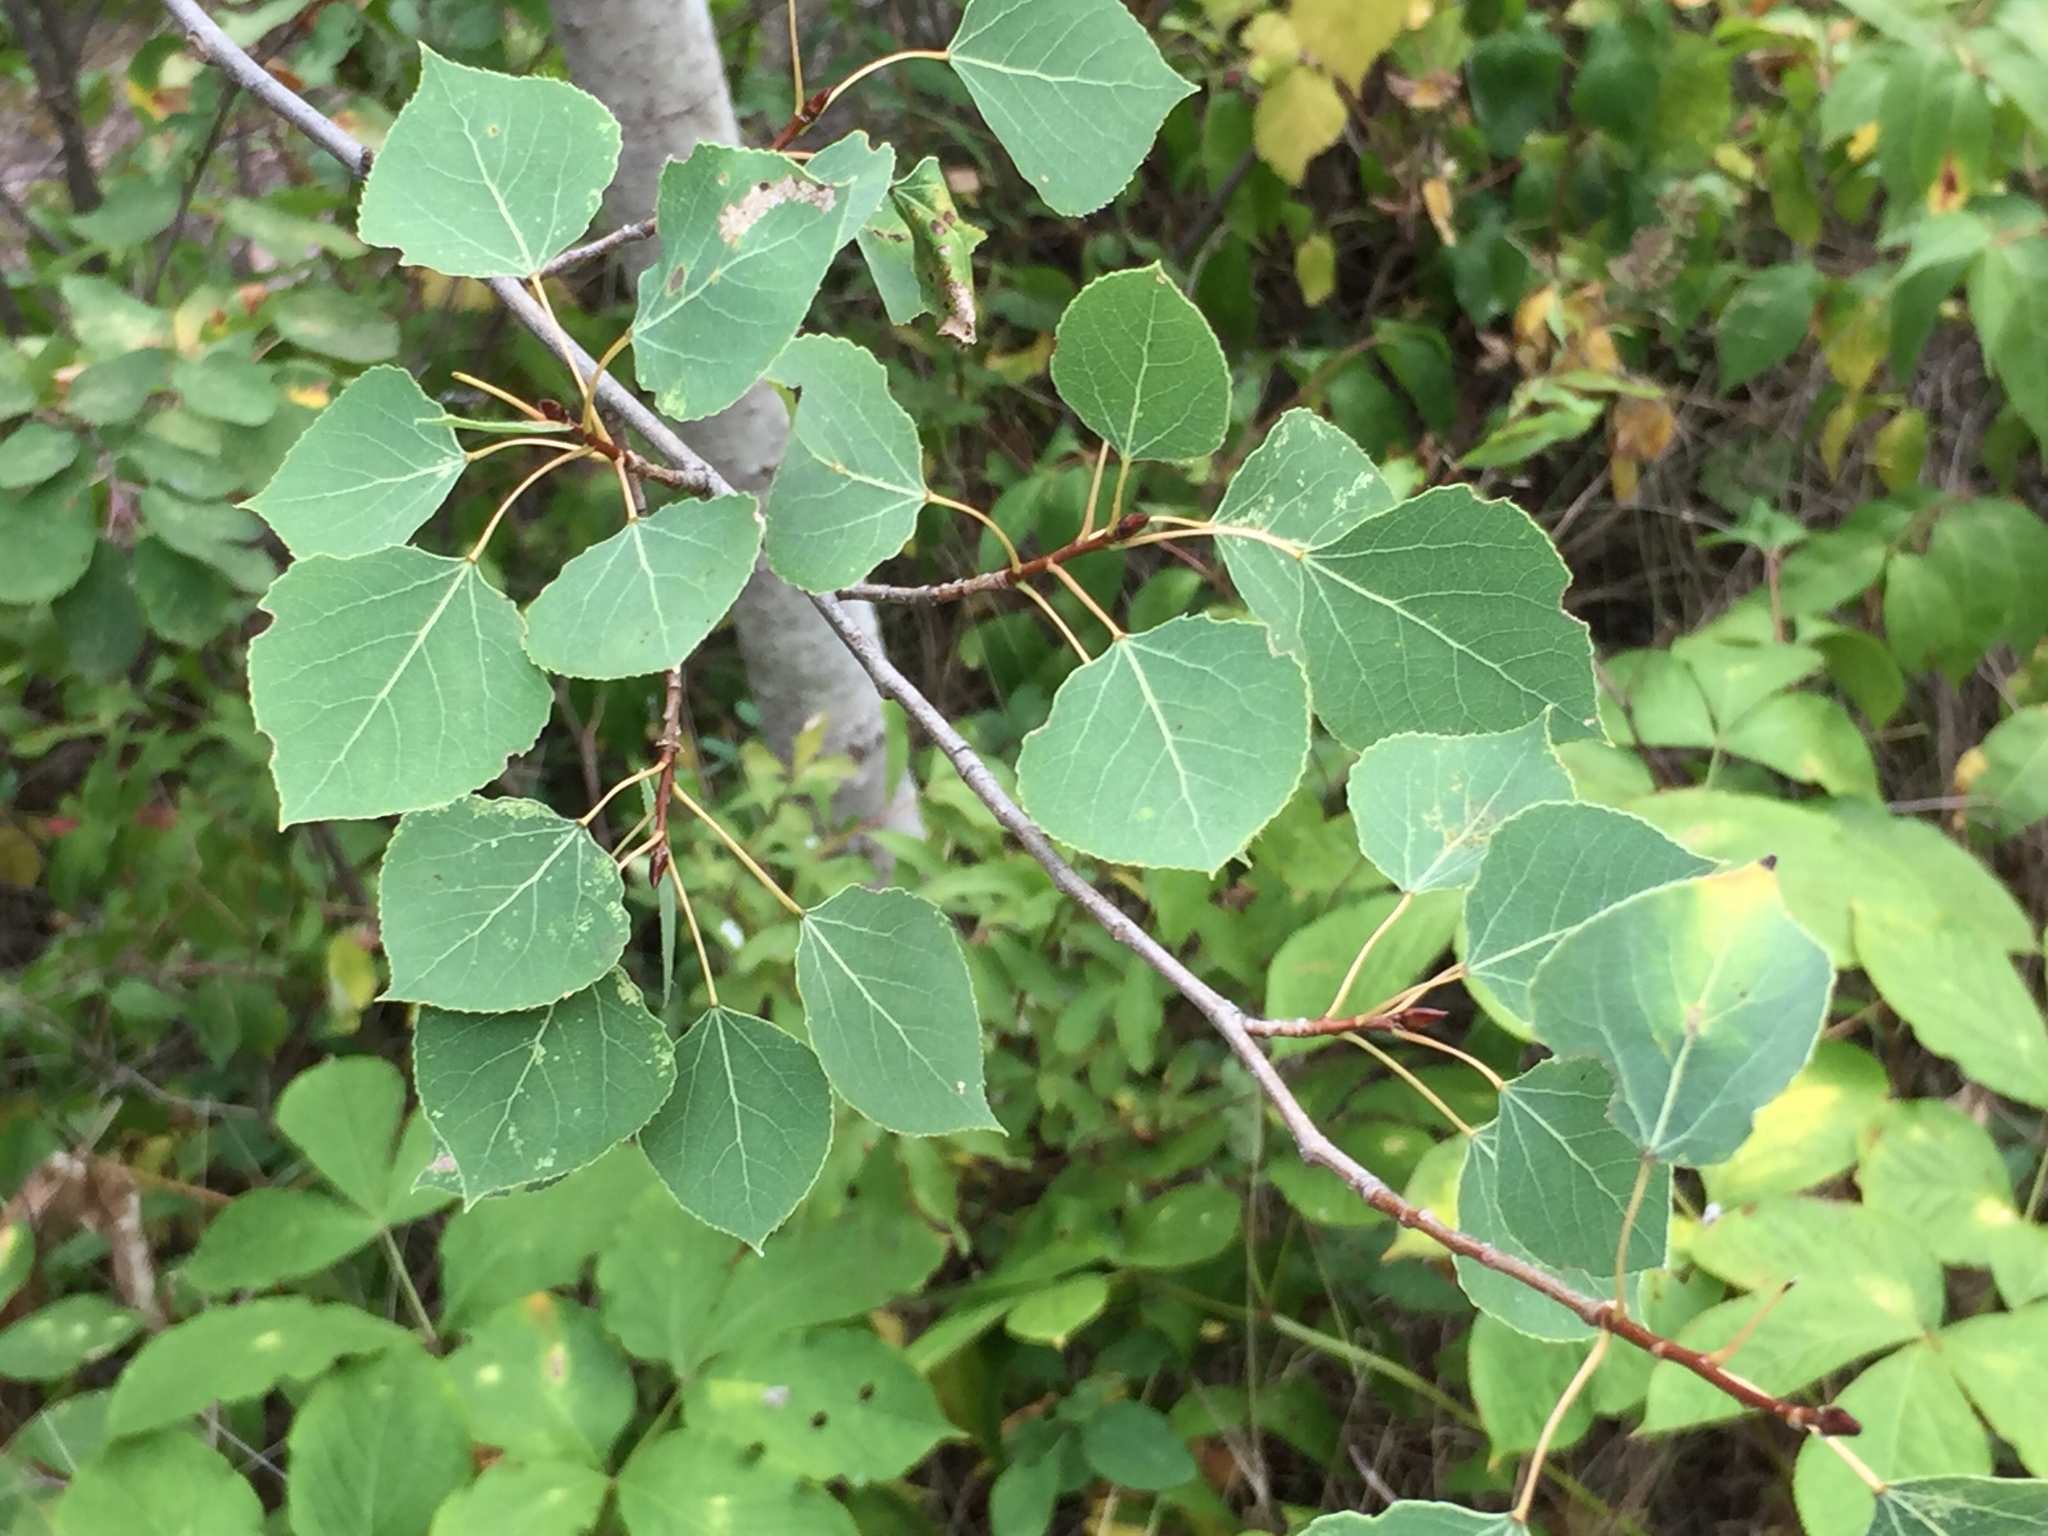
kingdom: Plantae
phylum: Tracheophyta
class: Magnoliopsida
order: Malpighiales
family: Salicaceae
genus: Populus
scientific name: Populus tremuloides
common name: Quaking aspen
